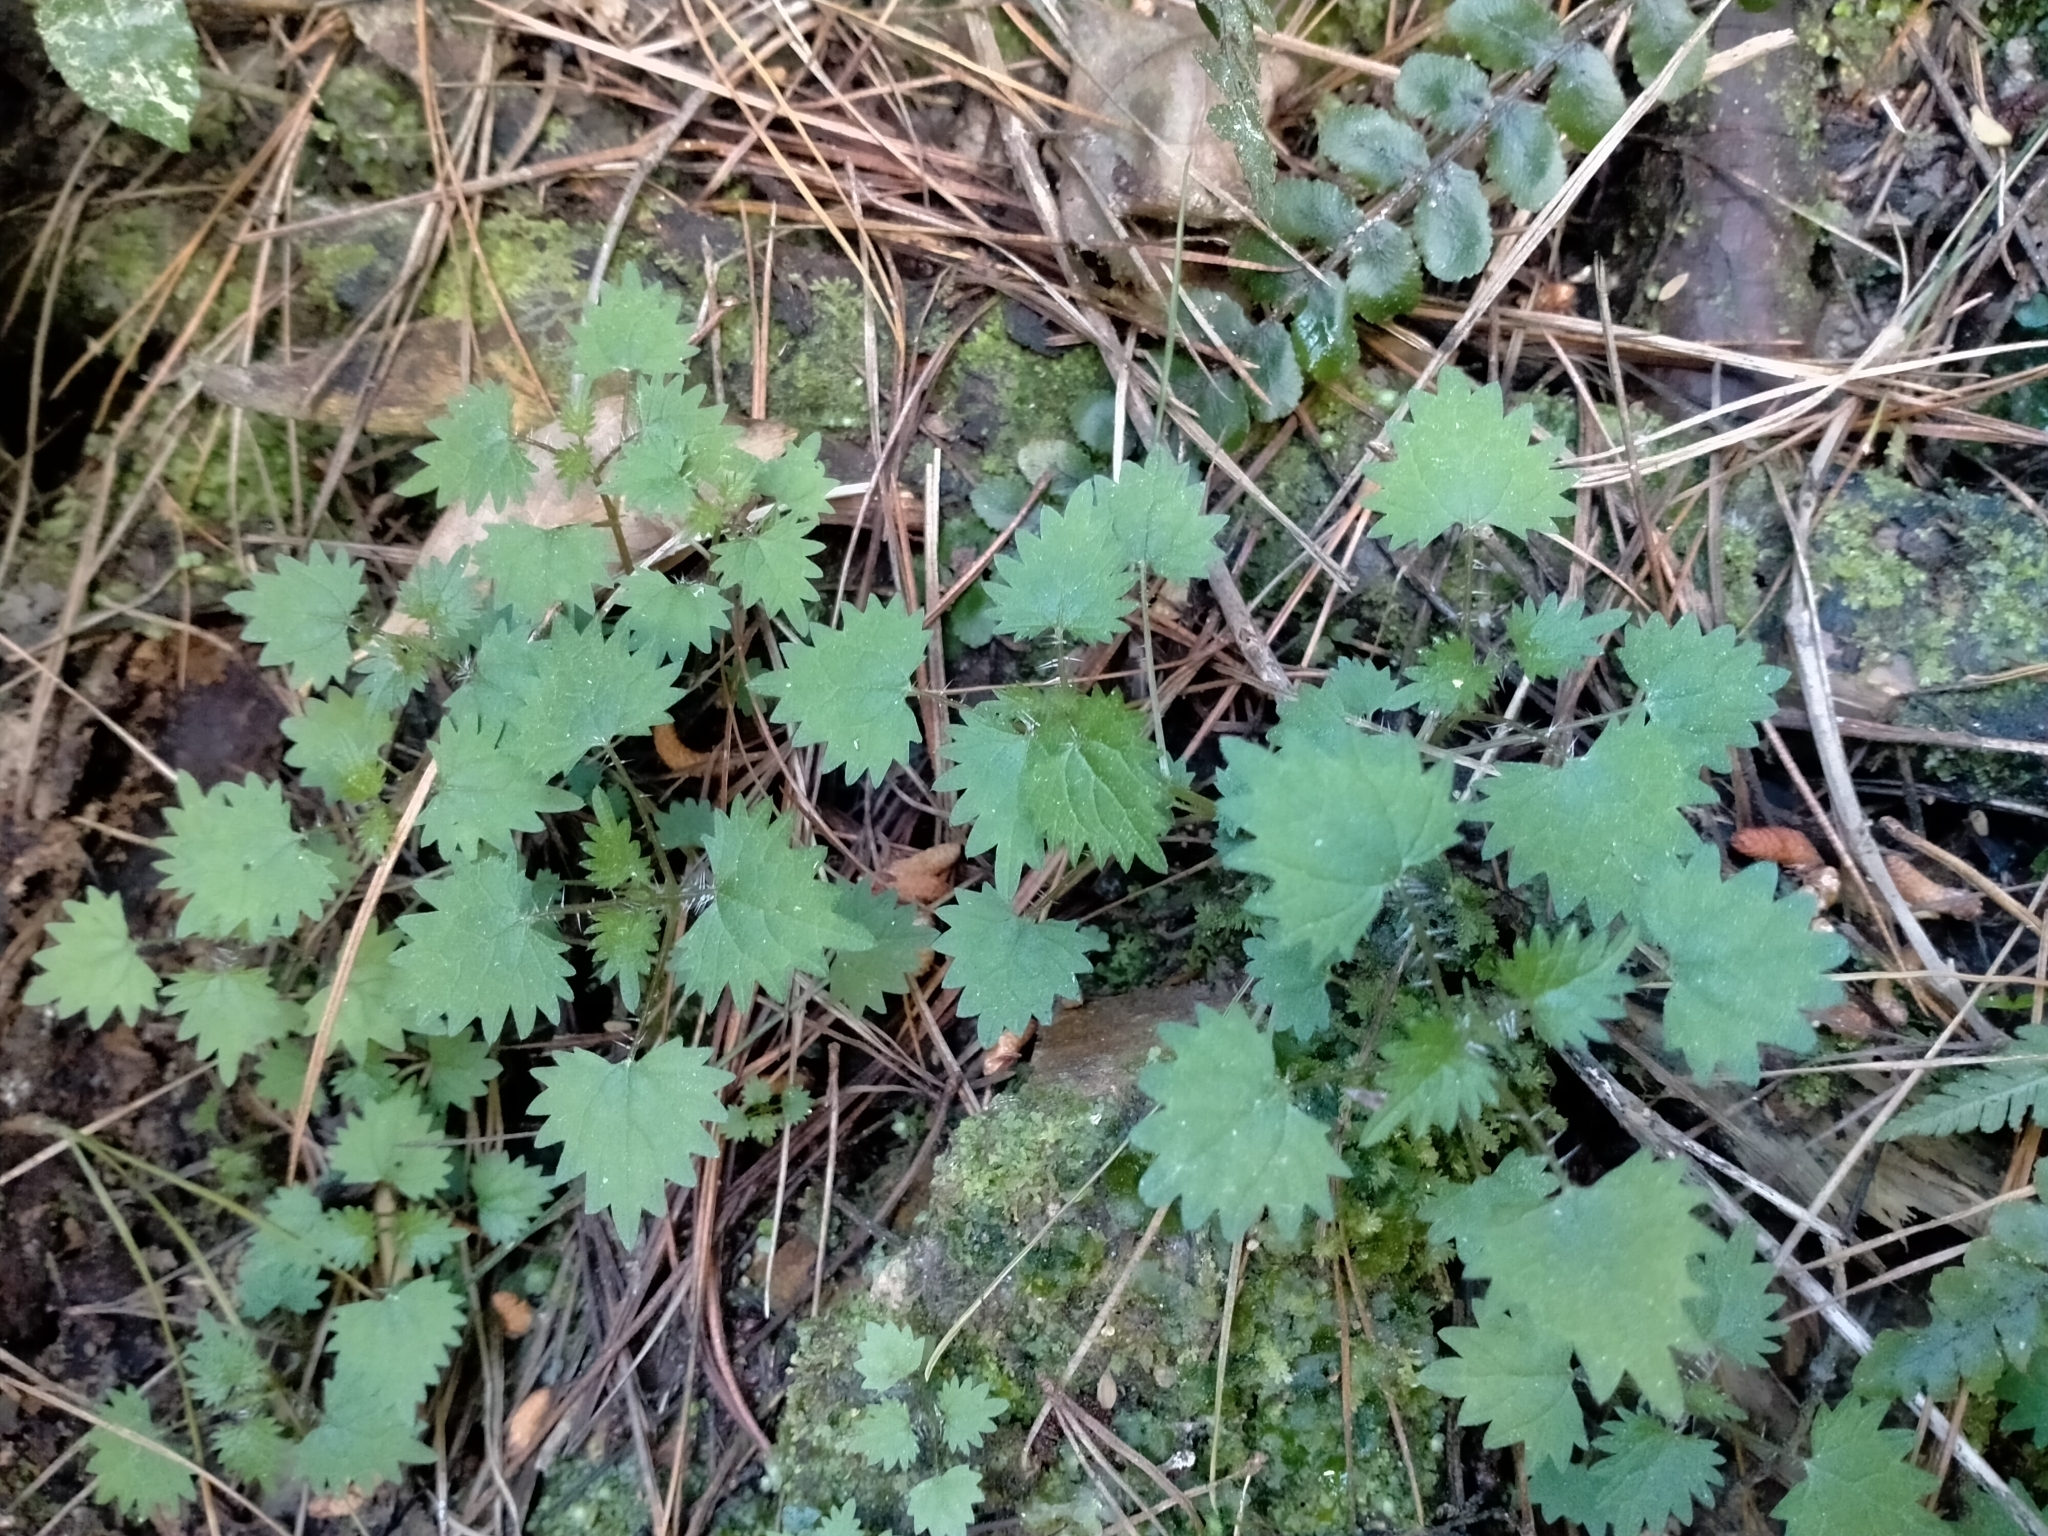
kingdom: Plantae
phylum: Tracheophyta
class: Magnoliopsida
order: Rosales
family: Urticaceae
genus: Urtica
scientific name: Urtica sykesii
